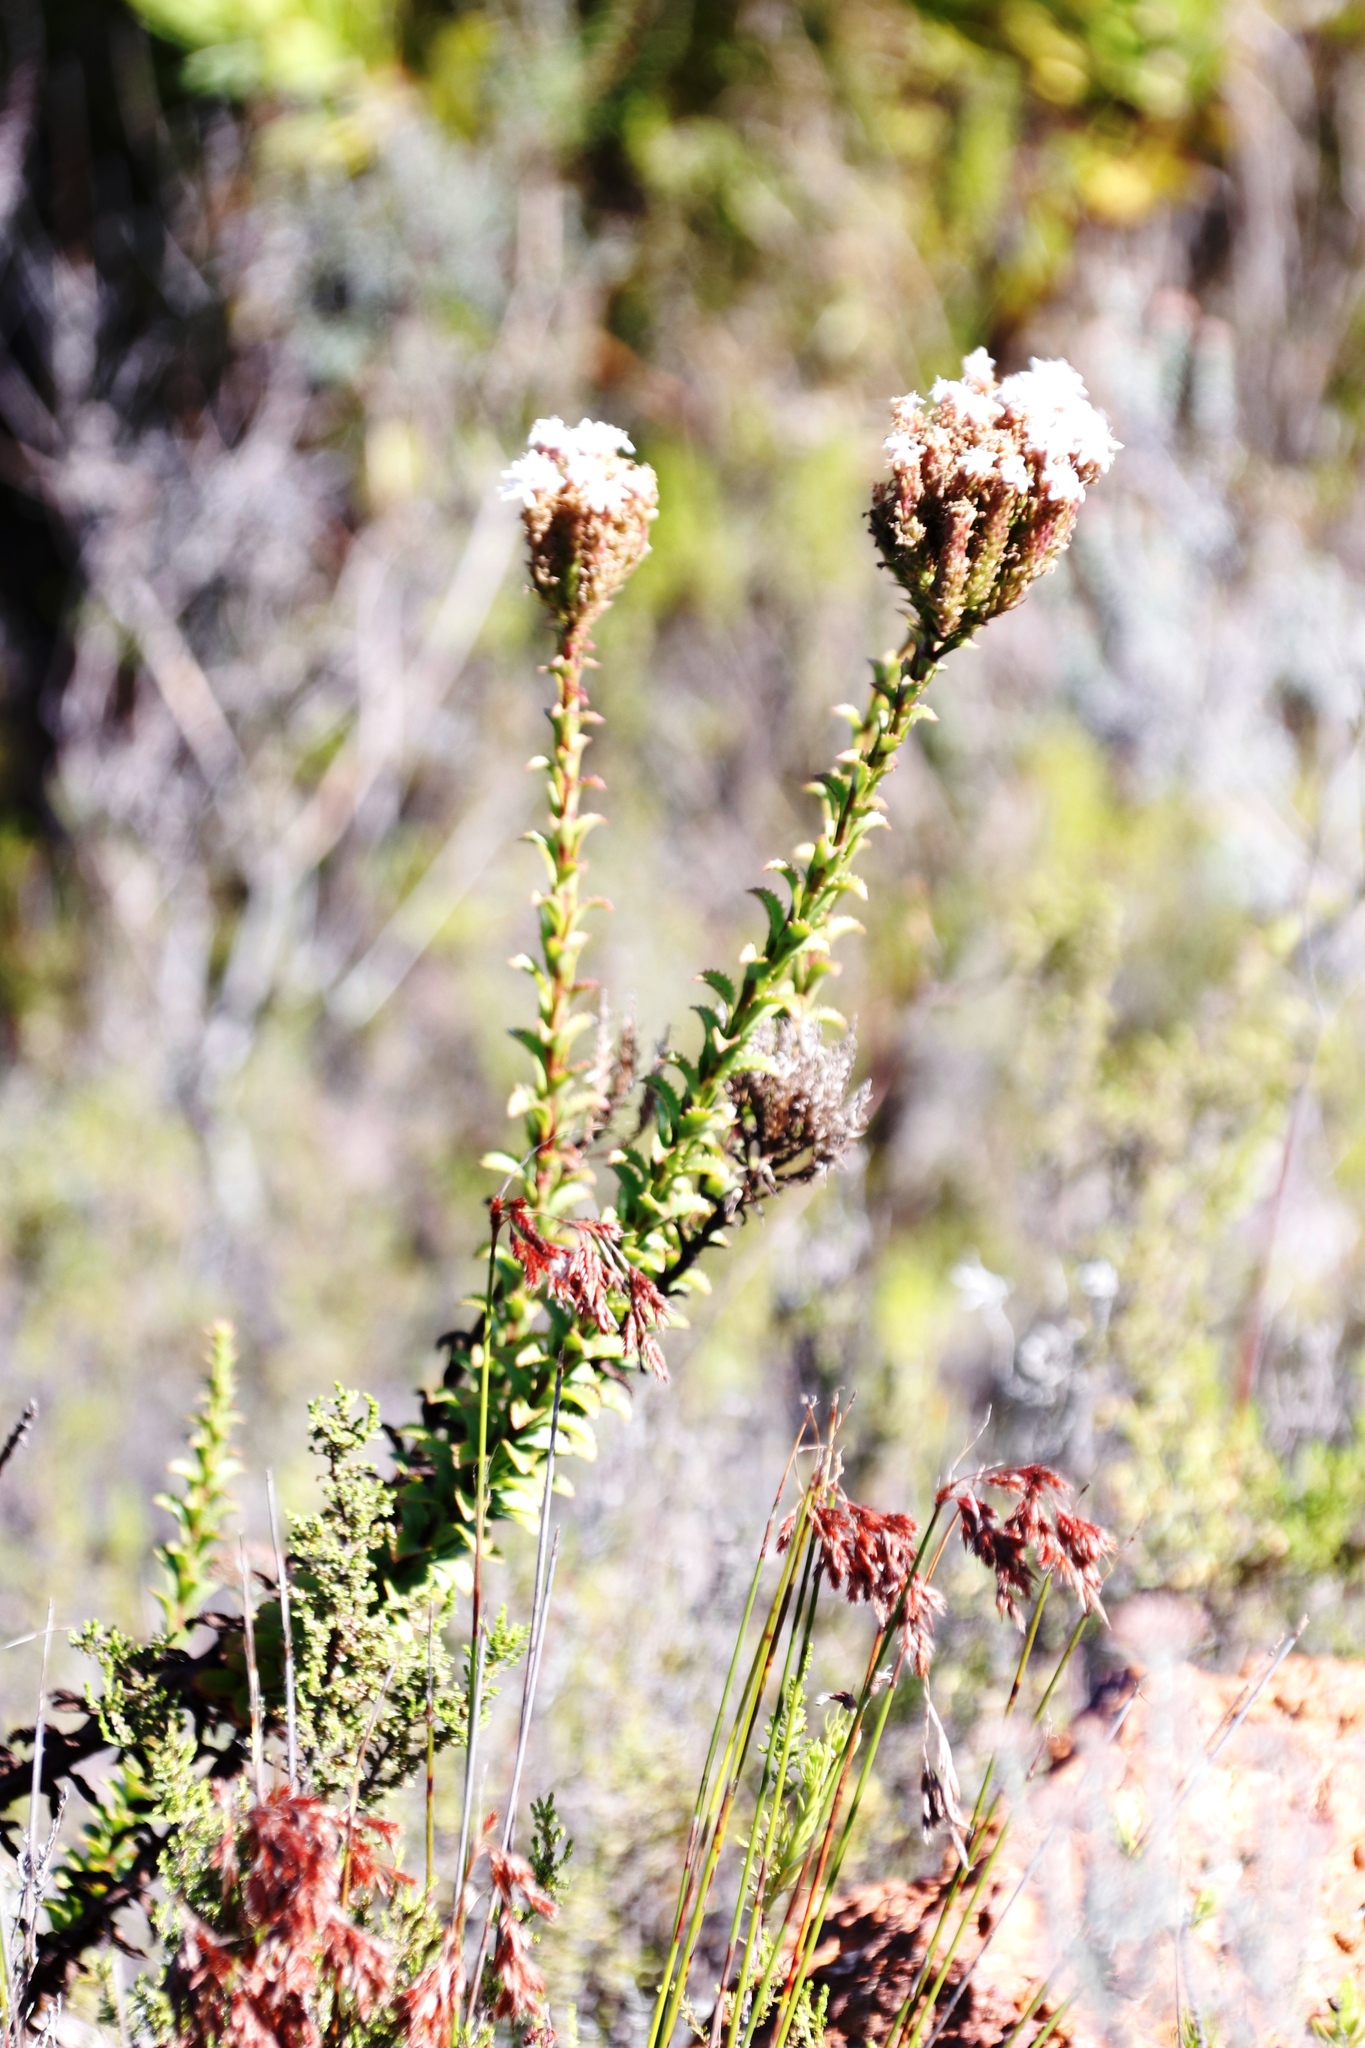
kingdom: Plantae
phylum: Tracheophyta
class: Magnoliopsida
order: Lamiales
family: Scrophulariaceae
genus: Pseudoselago
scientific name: Pseudoselago serrata
